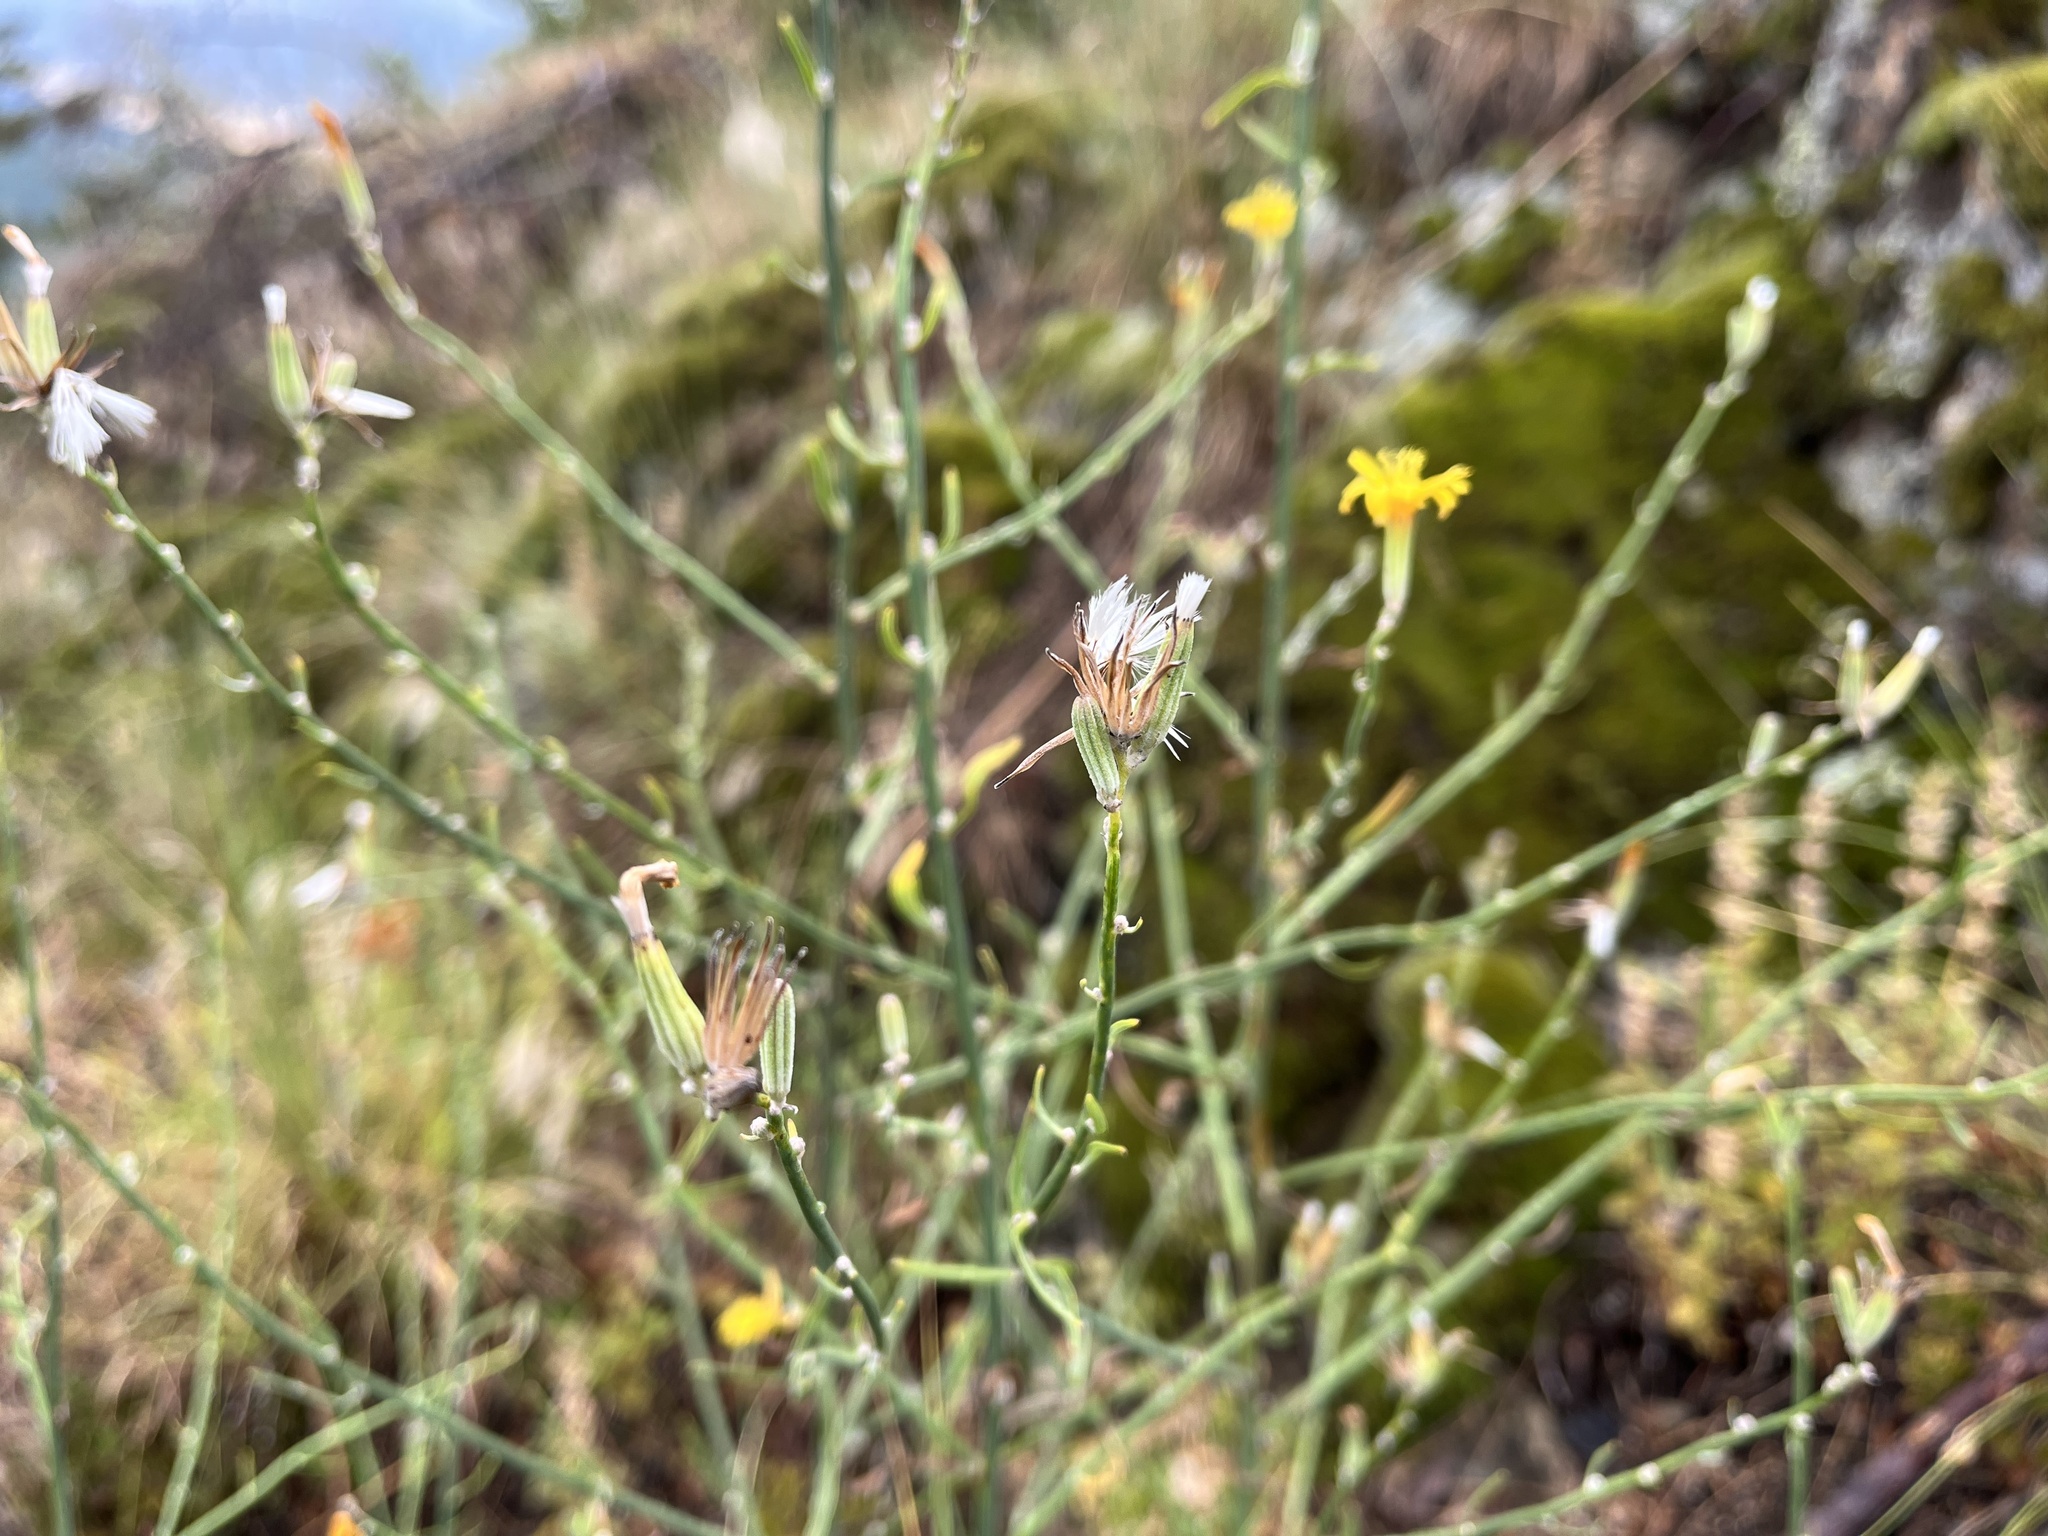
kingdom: Plantae
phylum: Tracheophyta
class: Magnoliopsida
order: Asterales
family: Asteraceae
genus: Chondrilla
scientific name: Chondrilla juncea
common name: Skeleton weed
